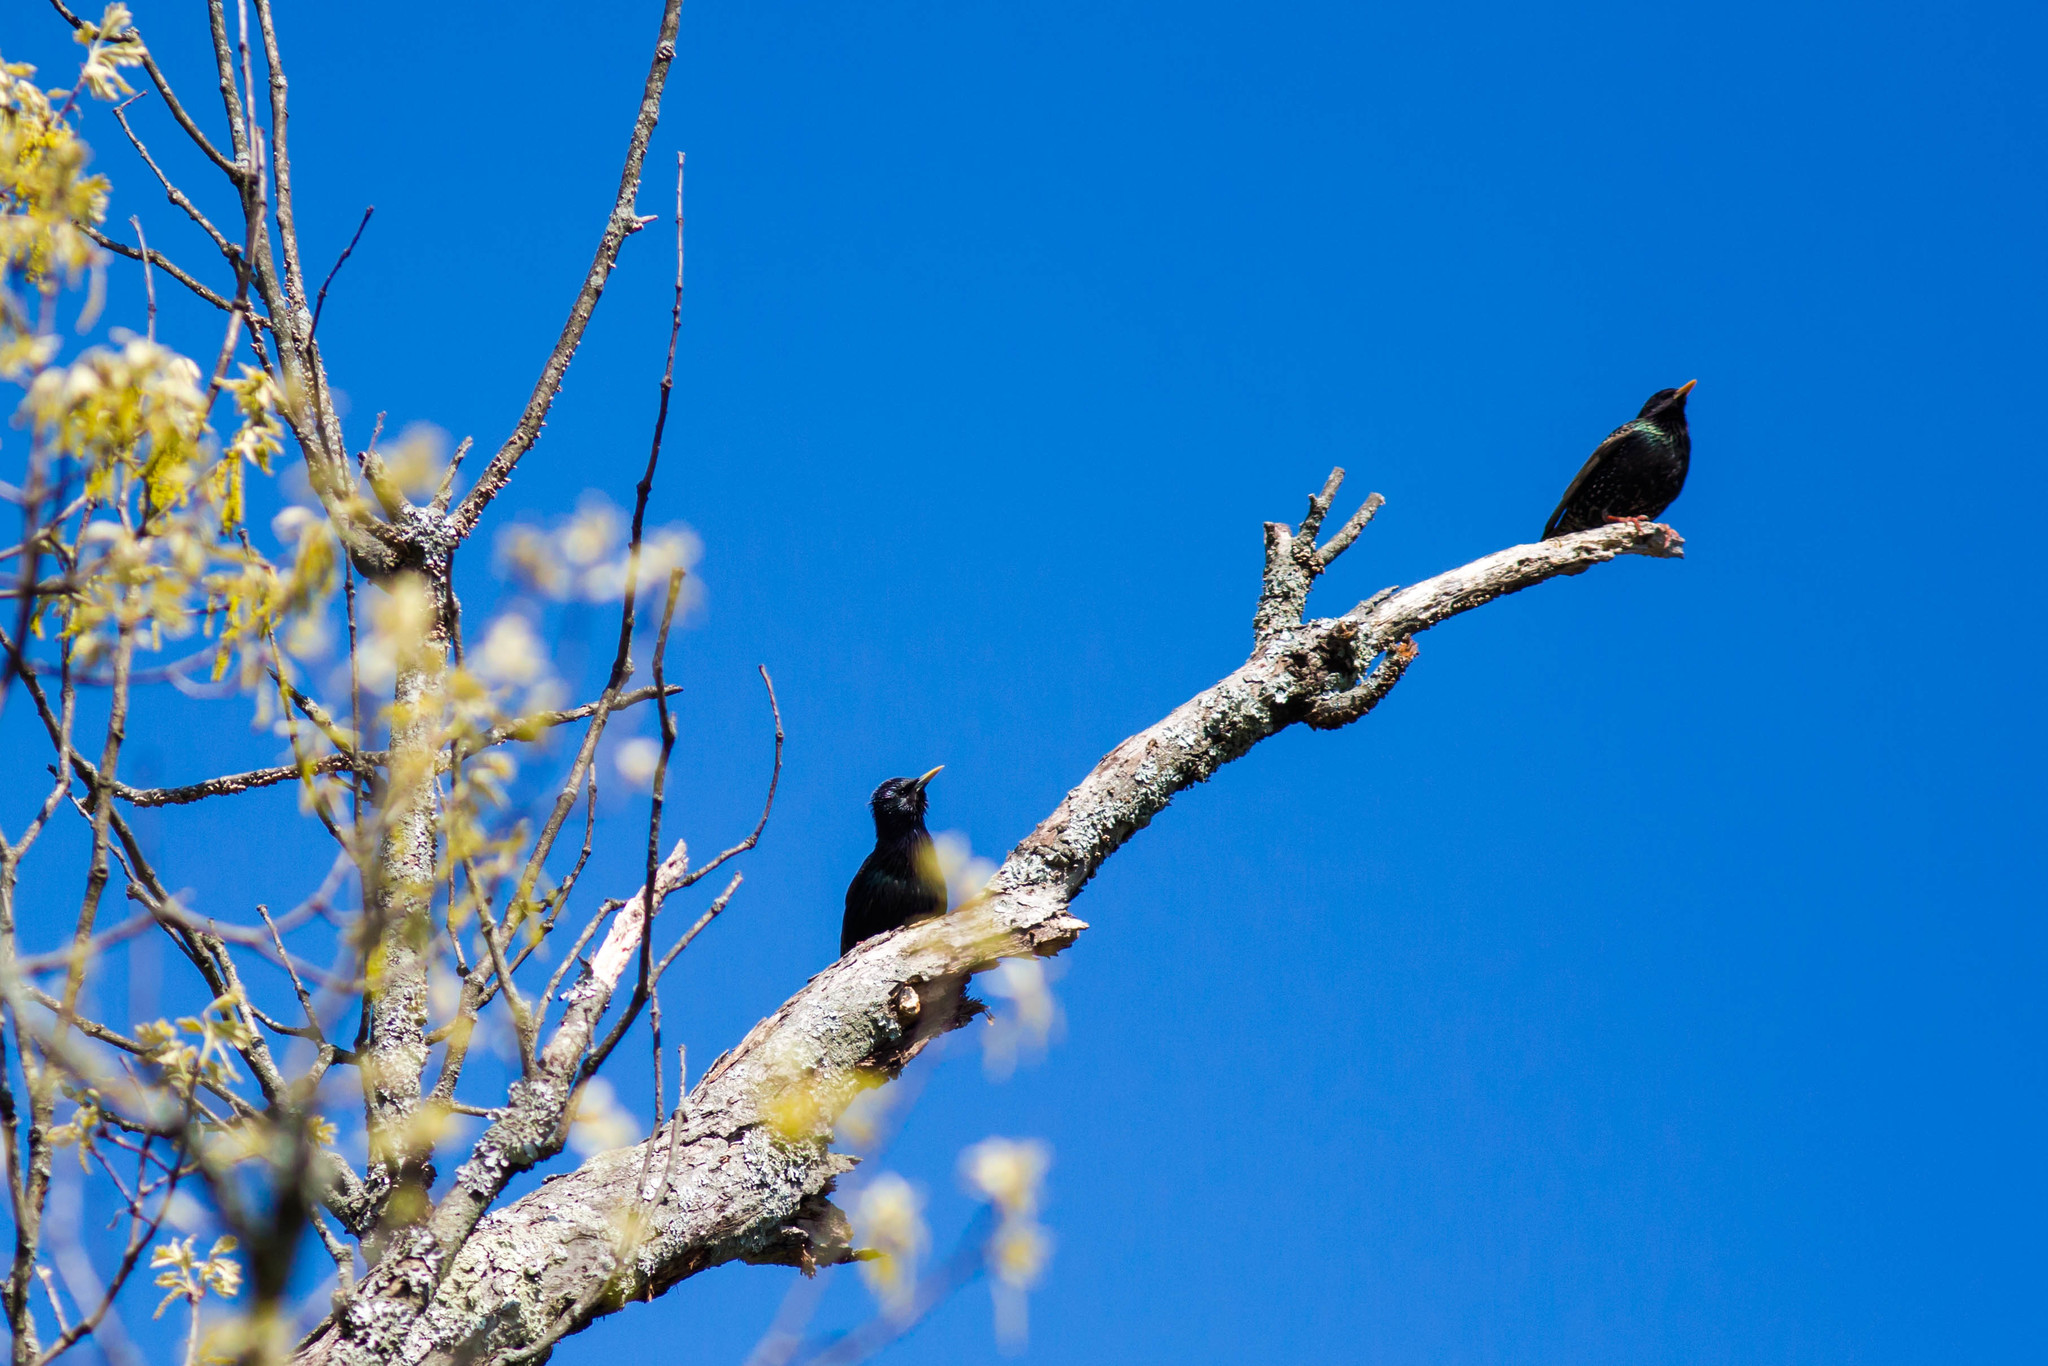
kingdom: Animalia
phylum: Chordata
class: Aves
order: Passeriformes
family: Sturnidae
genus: Sturnus
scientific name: Sturnus vulgaris
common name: Common starling
